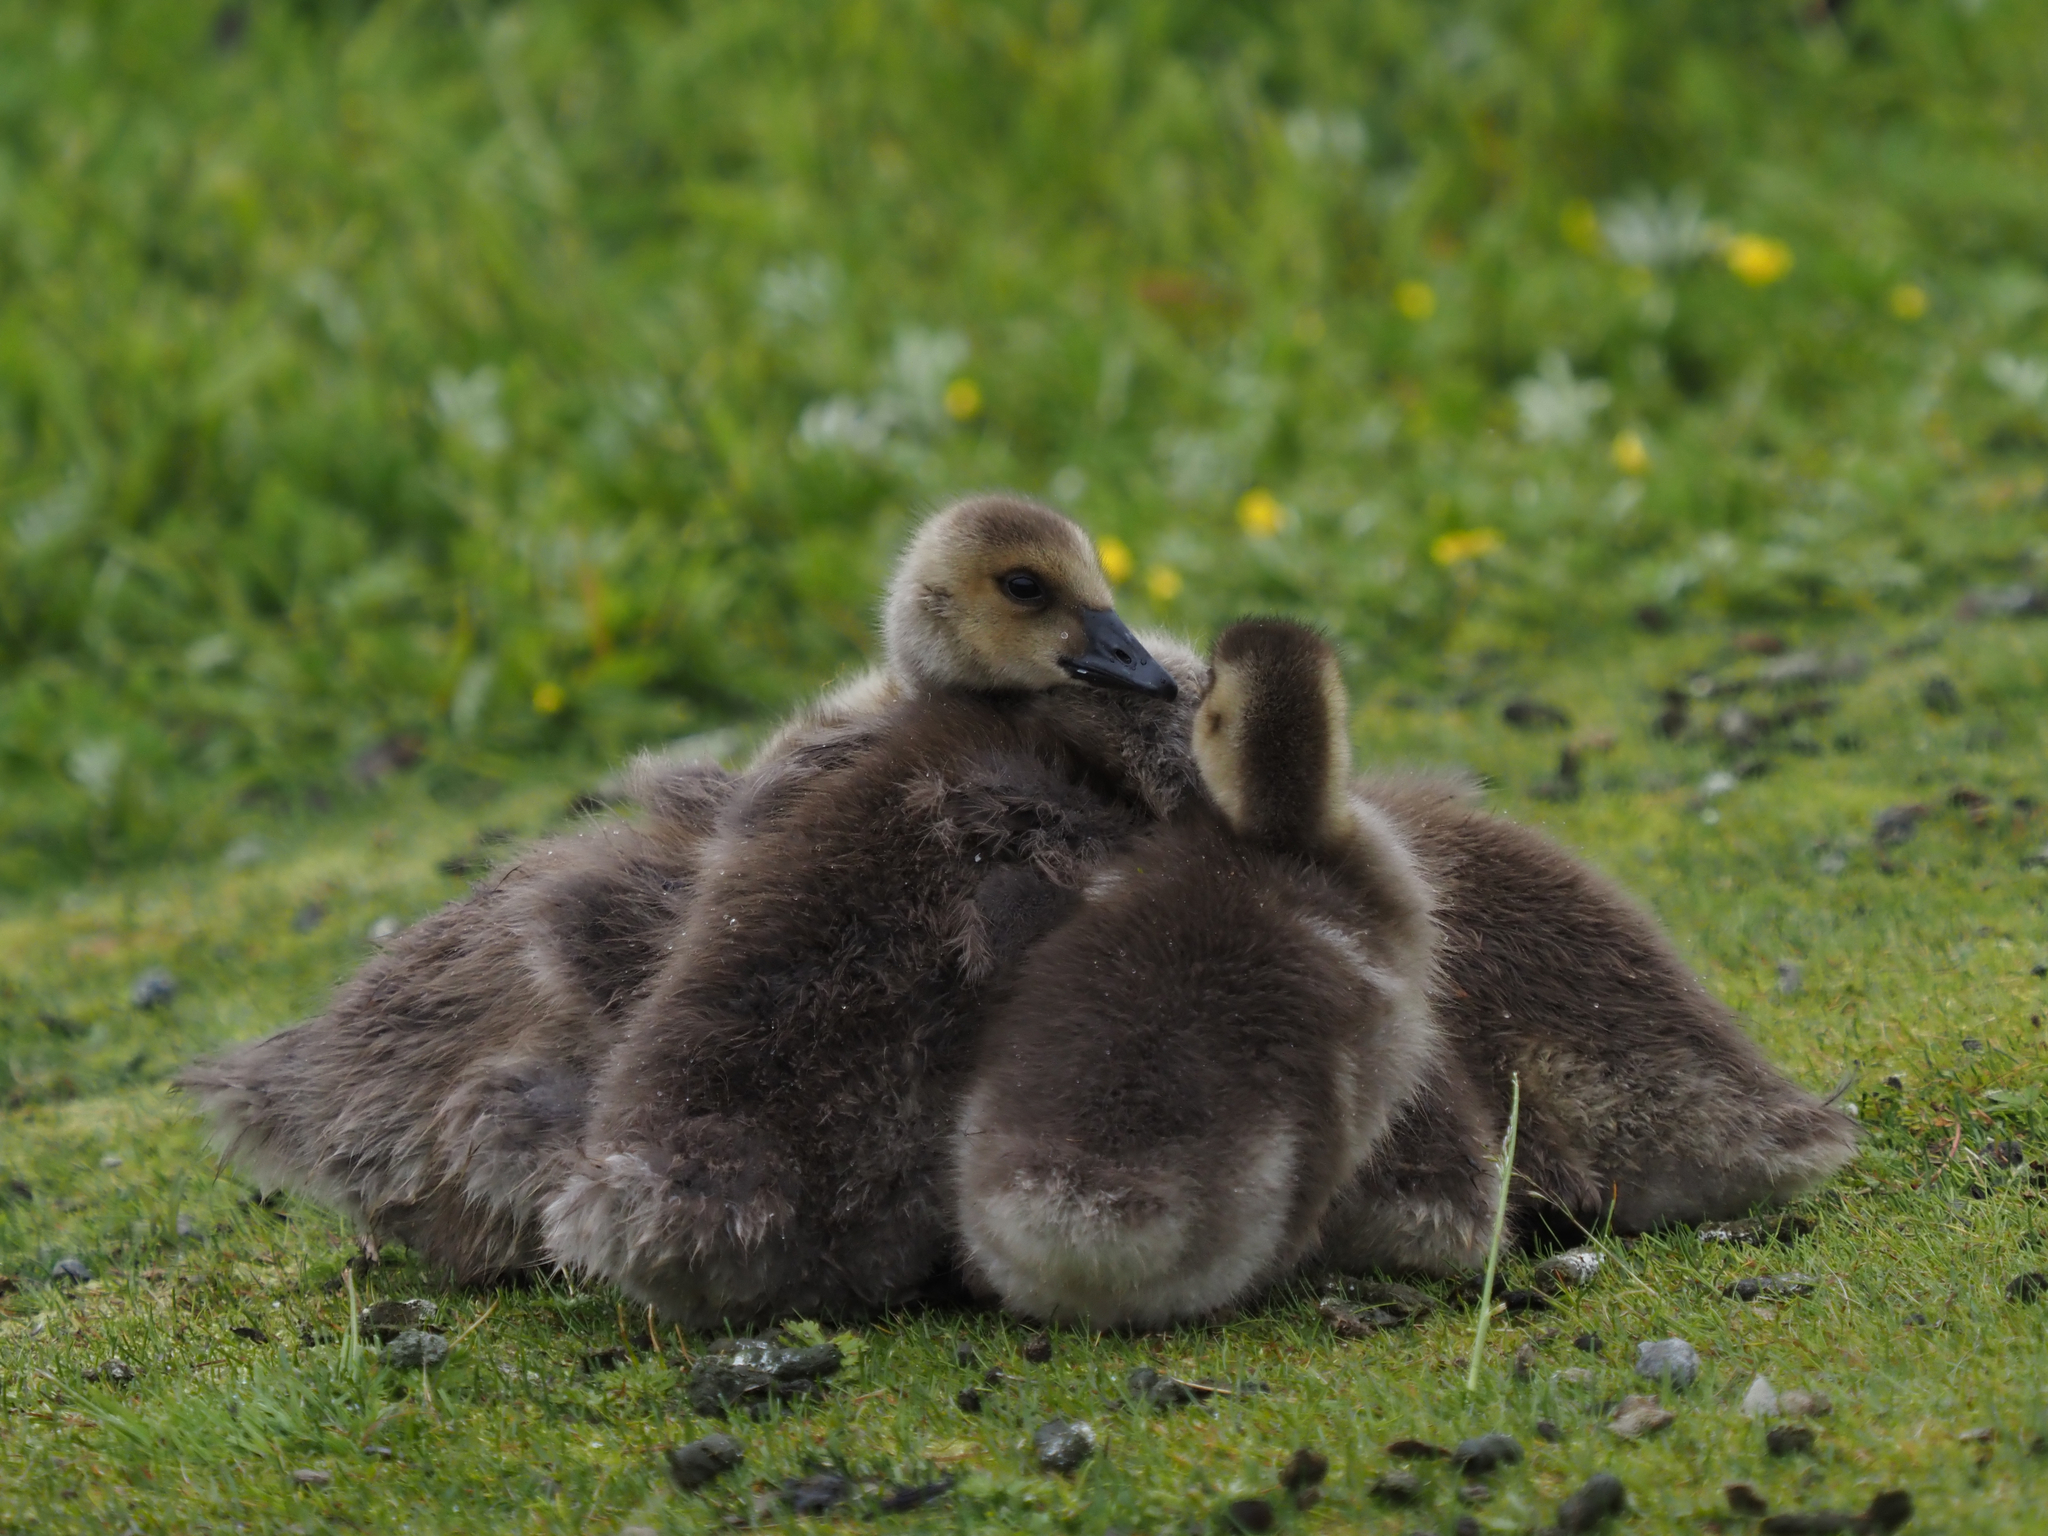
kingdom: Animalia
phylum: Chordata
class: Aves
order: Anseriformes
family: Anatidae
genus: Branta
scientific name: Branta canadensis
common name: Canada goose
